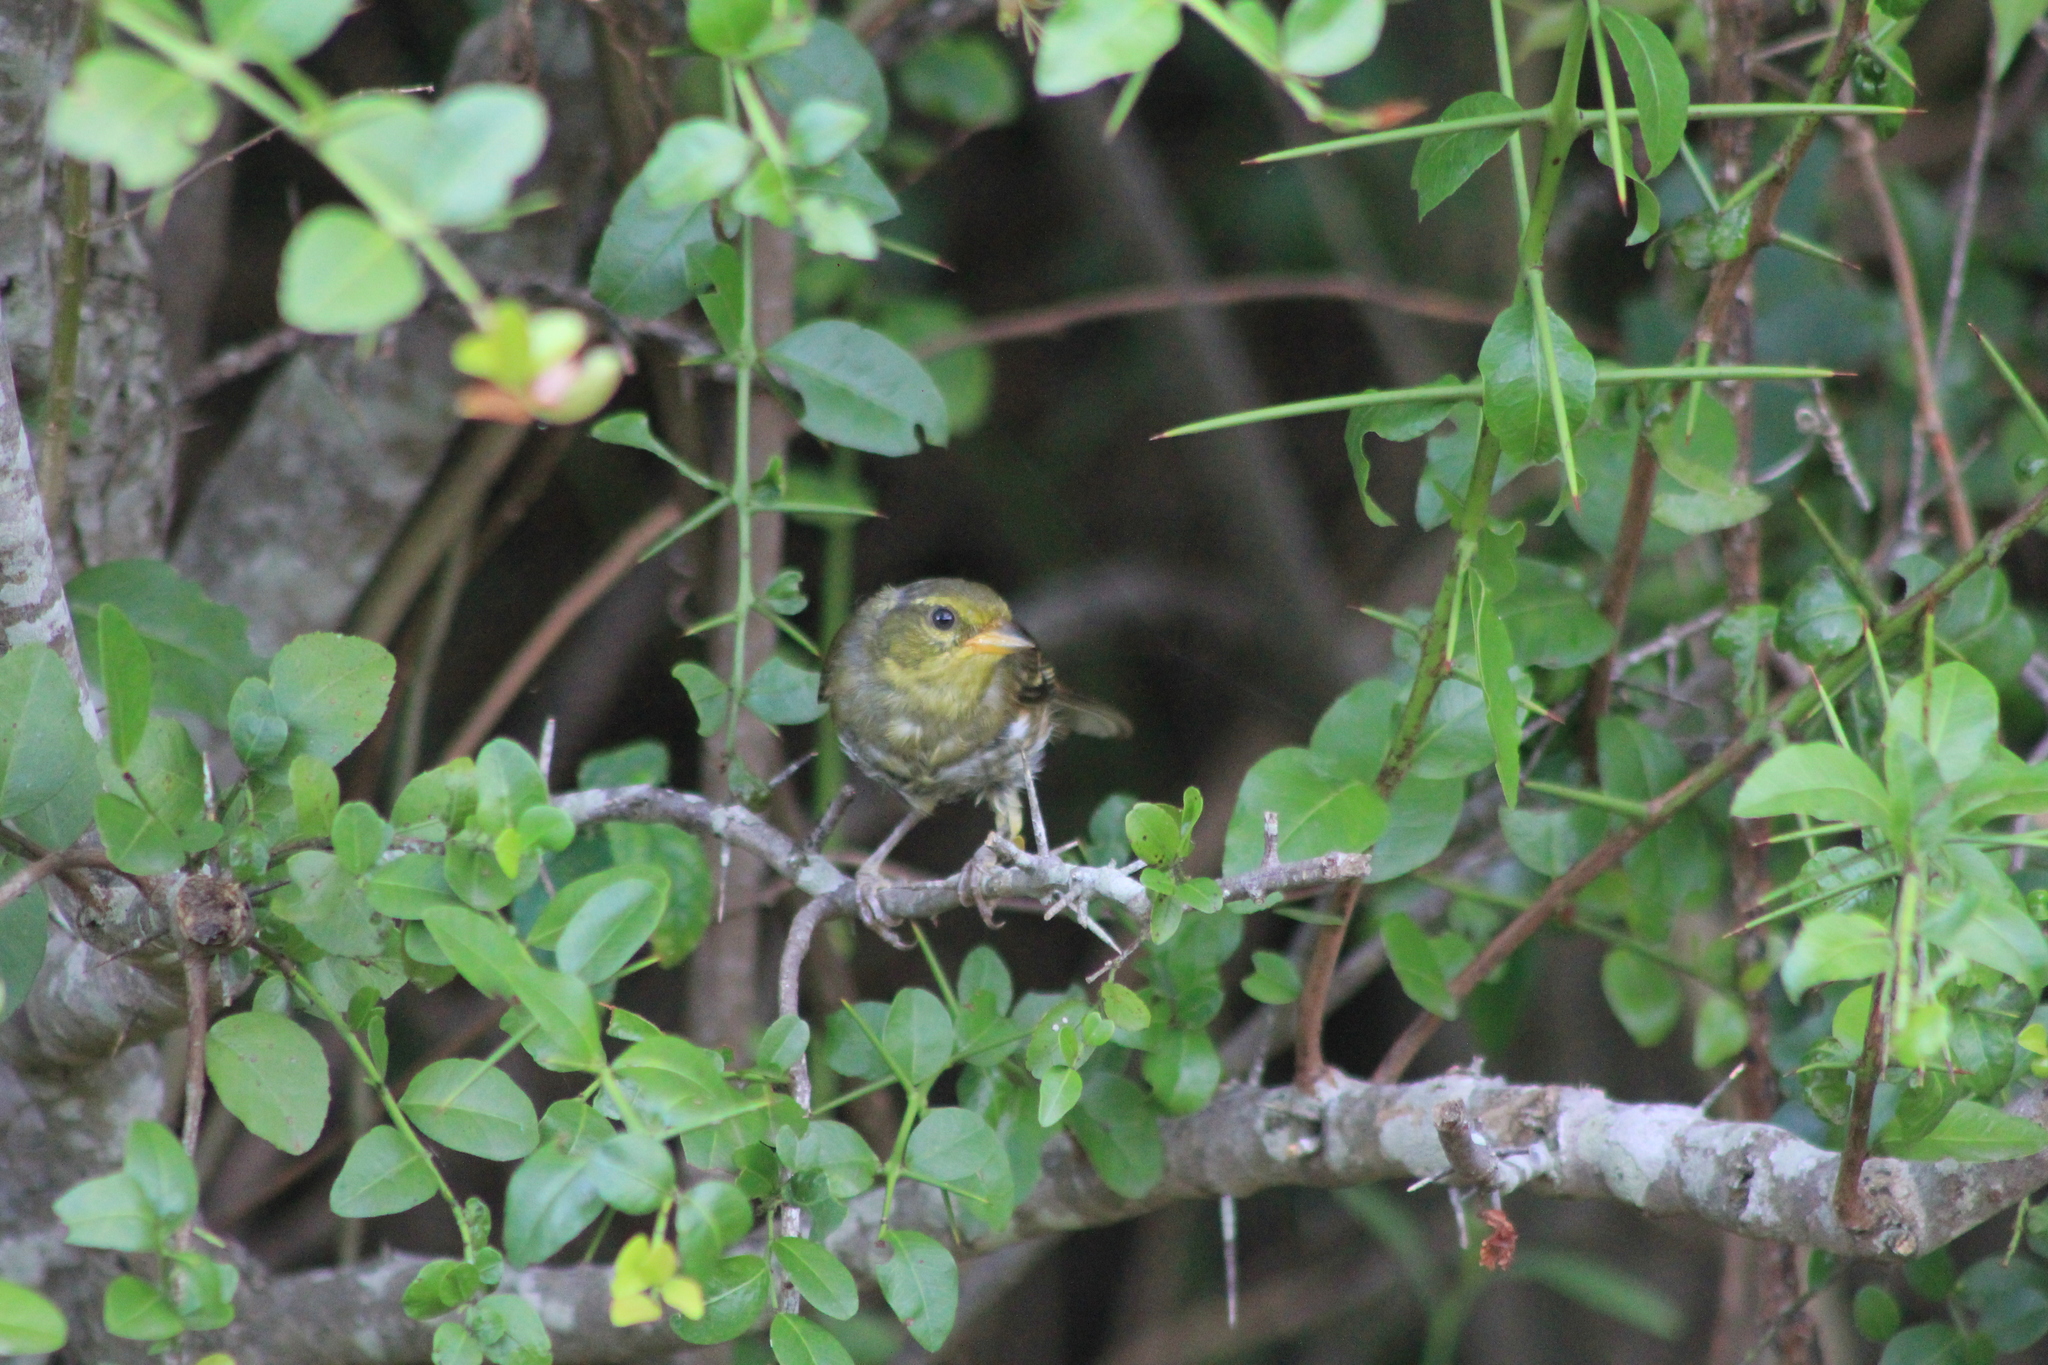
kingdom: Animalia
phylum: Chordata
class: Aves
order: Passeriformes
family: Thraupidae
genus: Microspingus
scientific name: Microspingus cabanisi
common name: Gray-throated warbling-finch
